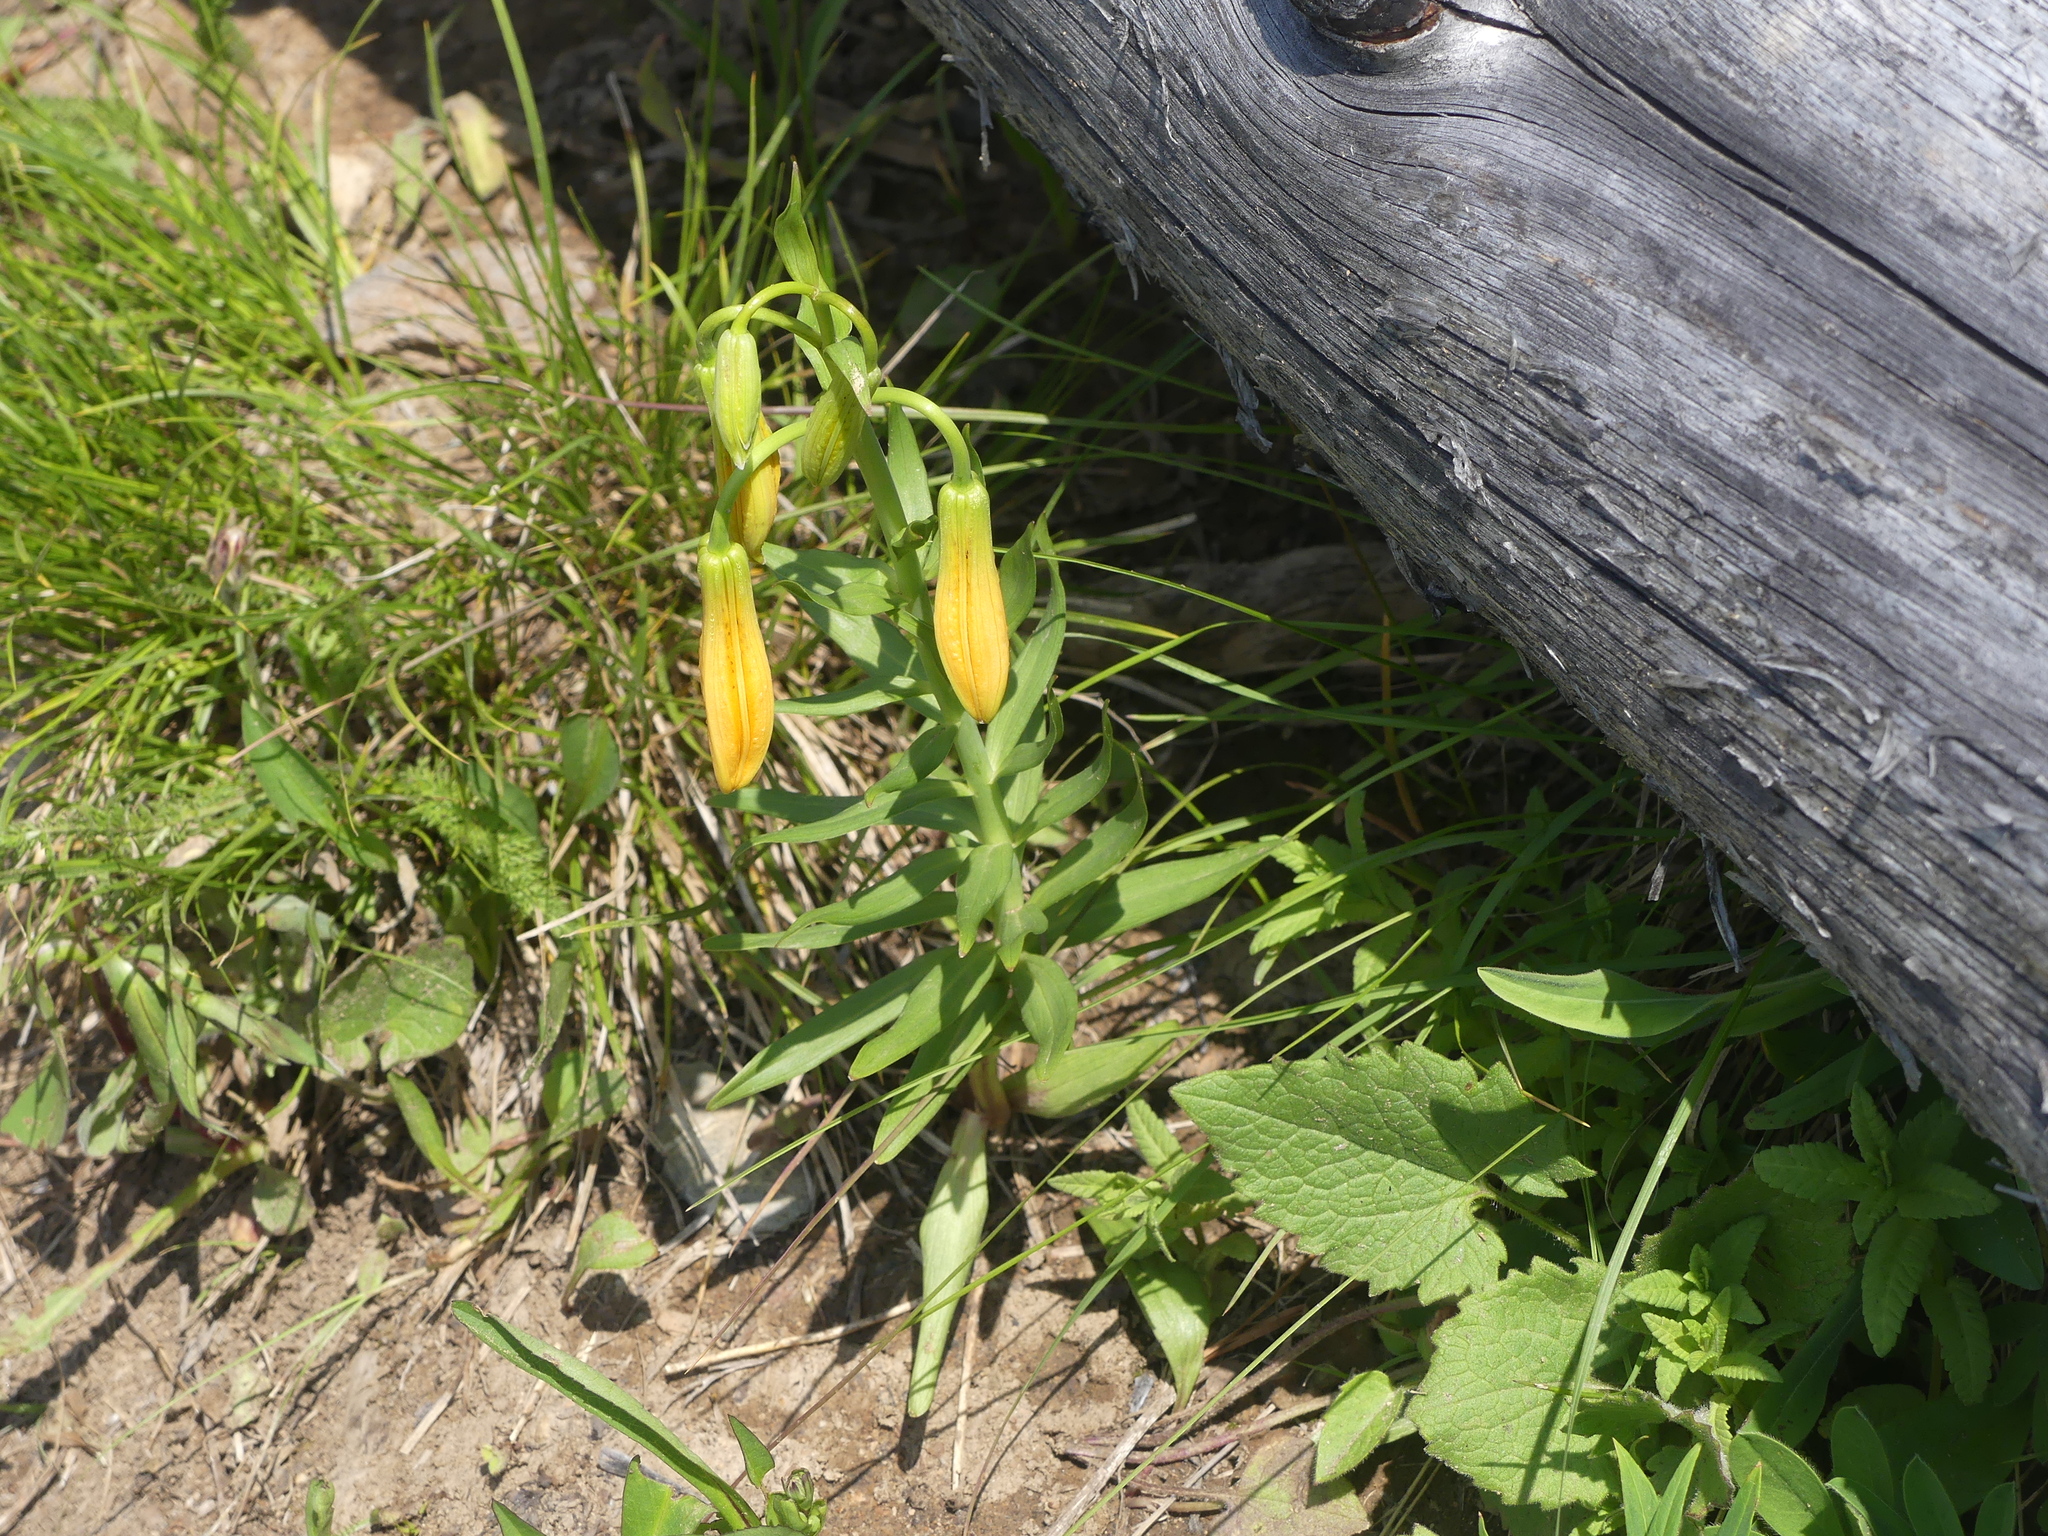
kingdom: Plantae
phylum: Tracheophyta
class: Liliopsida
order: Liliales
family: Liliaceae
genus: Lilium
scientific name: Lilium columbianum
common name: Columbia lily
